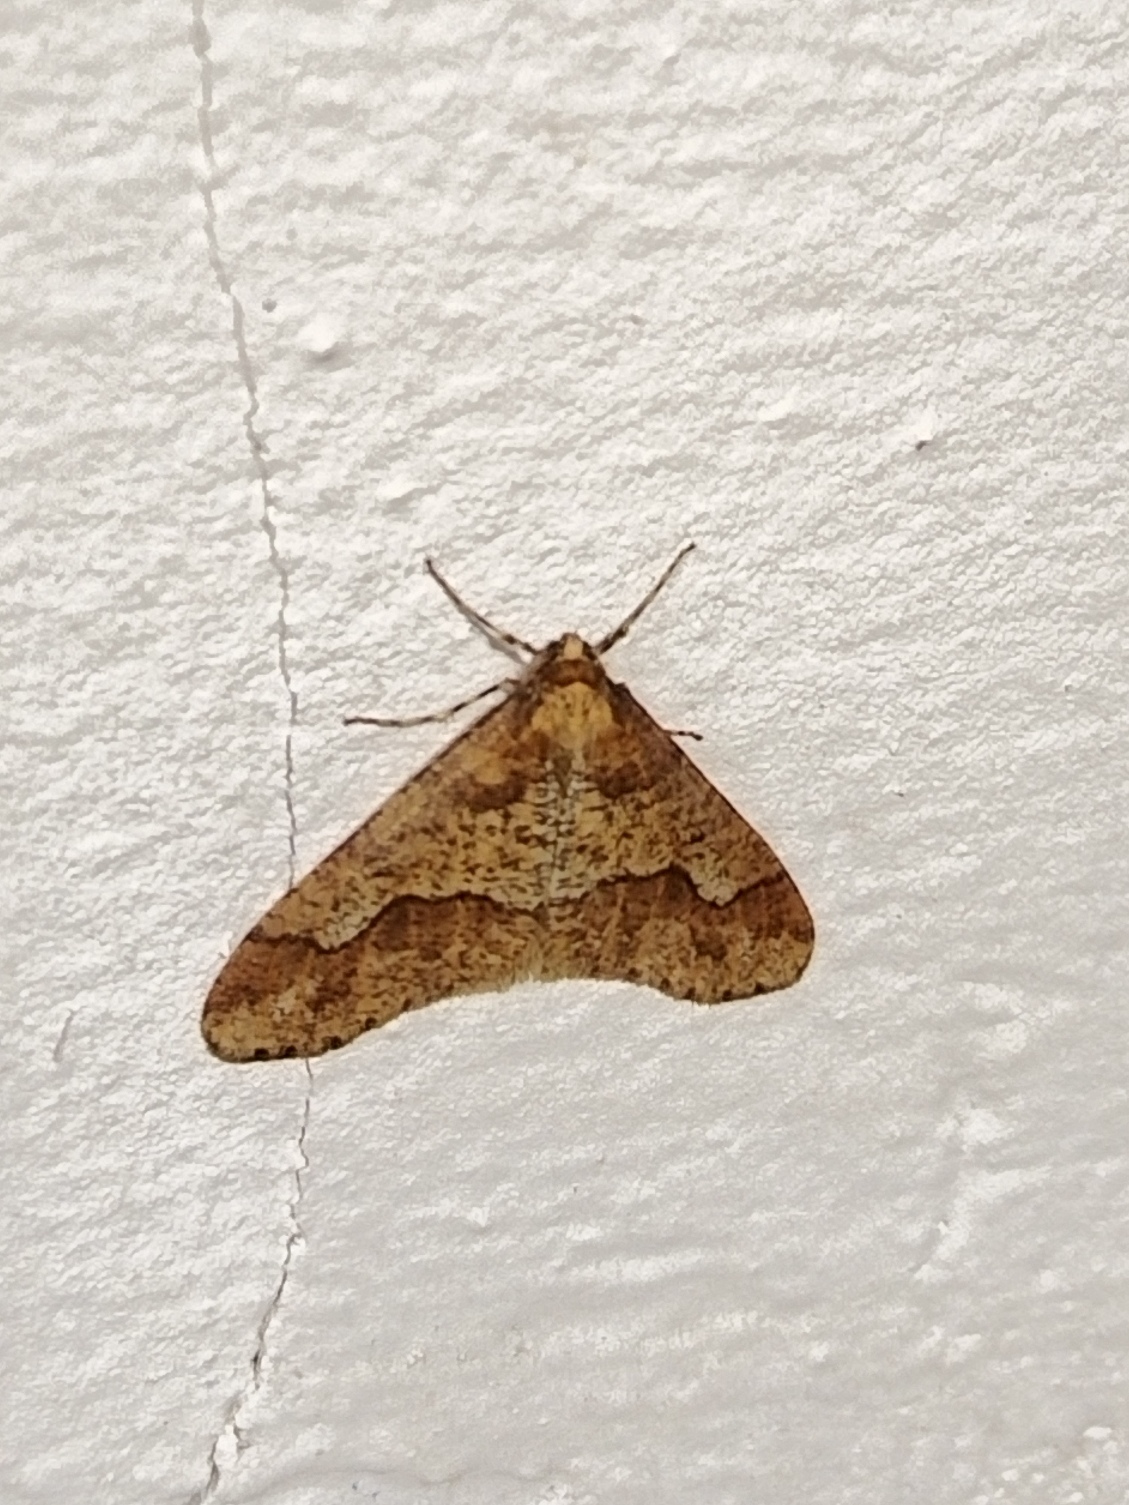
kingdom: Animalia
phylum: Arthropoda
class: Insecta
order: Lepidoptera
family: Geometridae
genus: Erannis
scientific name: Erannis defoliaria
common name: Mottled umber
